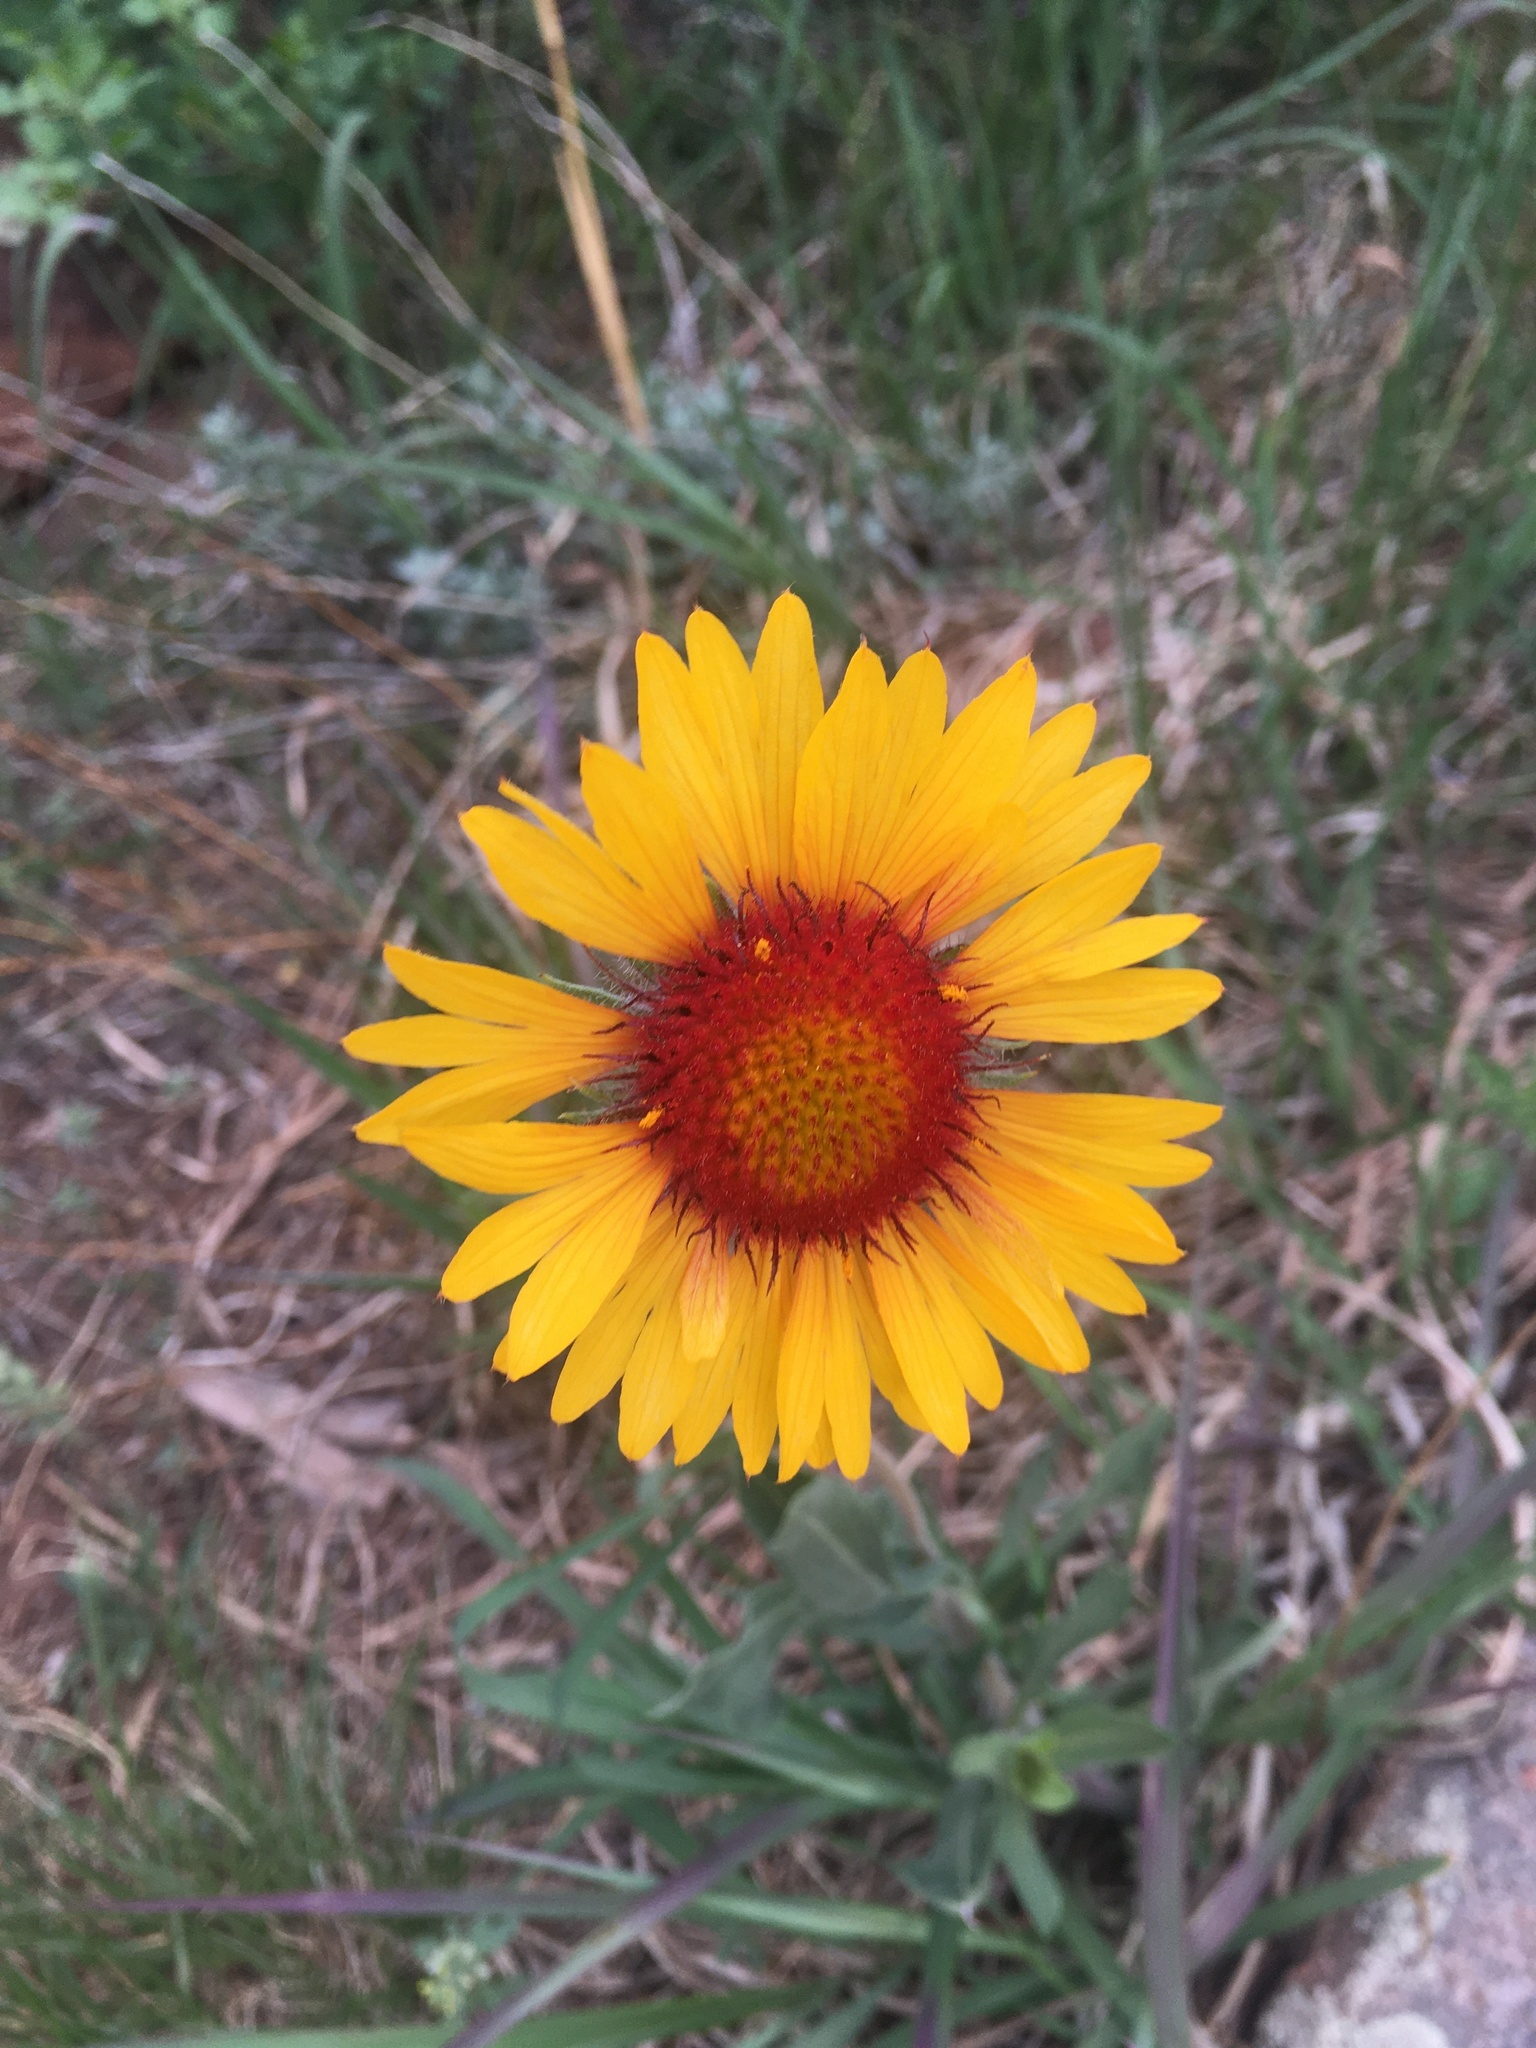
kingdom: Plantae
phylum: Tracheophyta
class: Magnoliopsida
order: Asterales
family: Asteraceae
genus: Gaillardia
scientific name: Gaillardia aristata
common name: Blanket-flower
